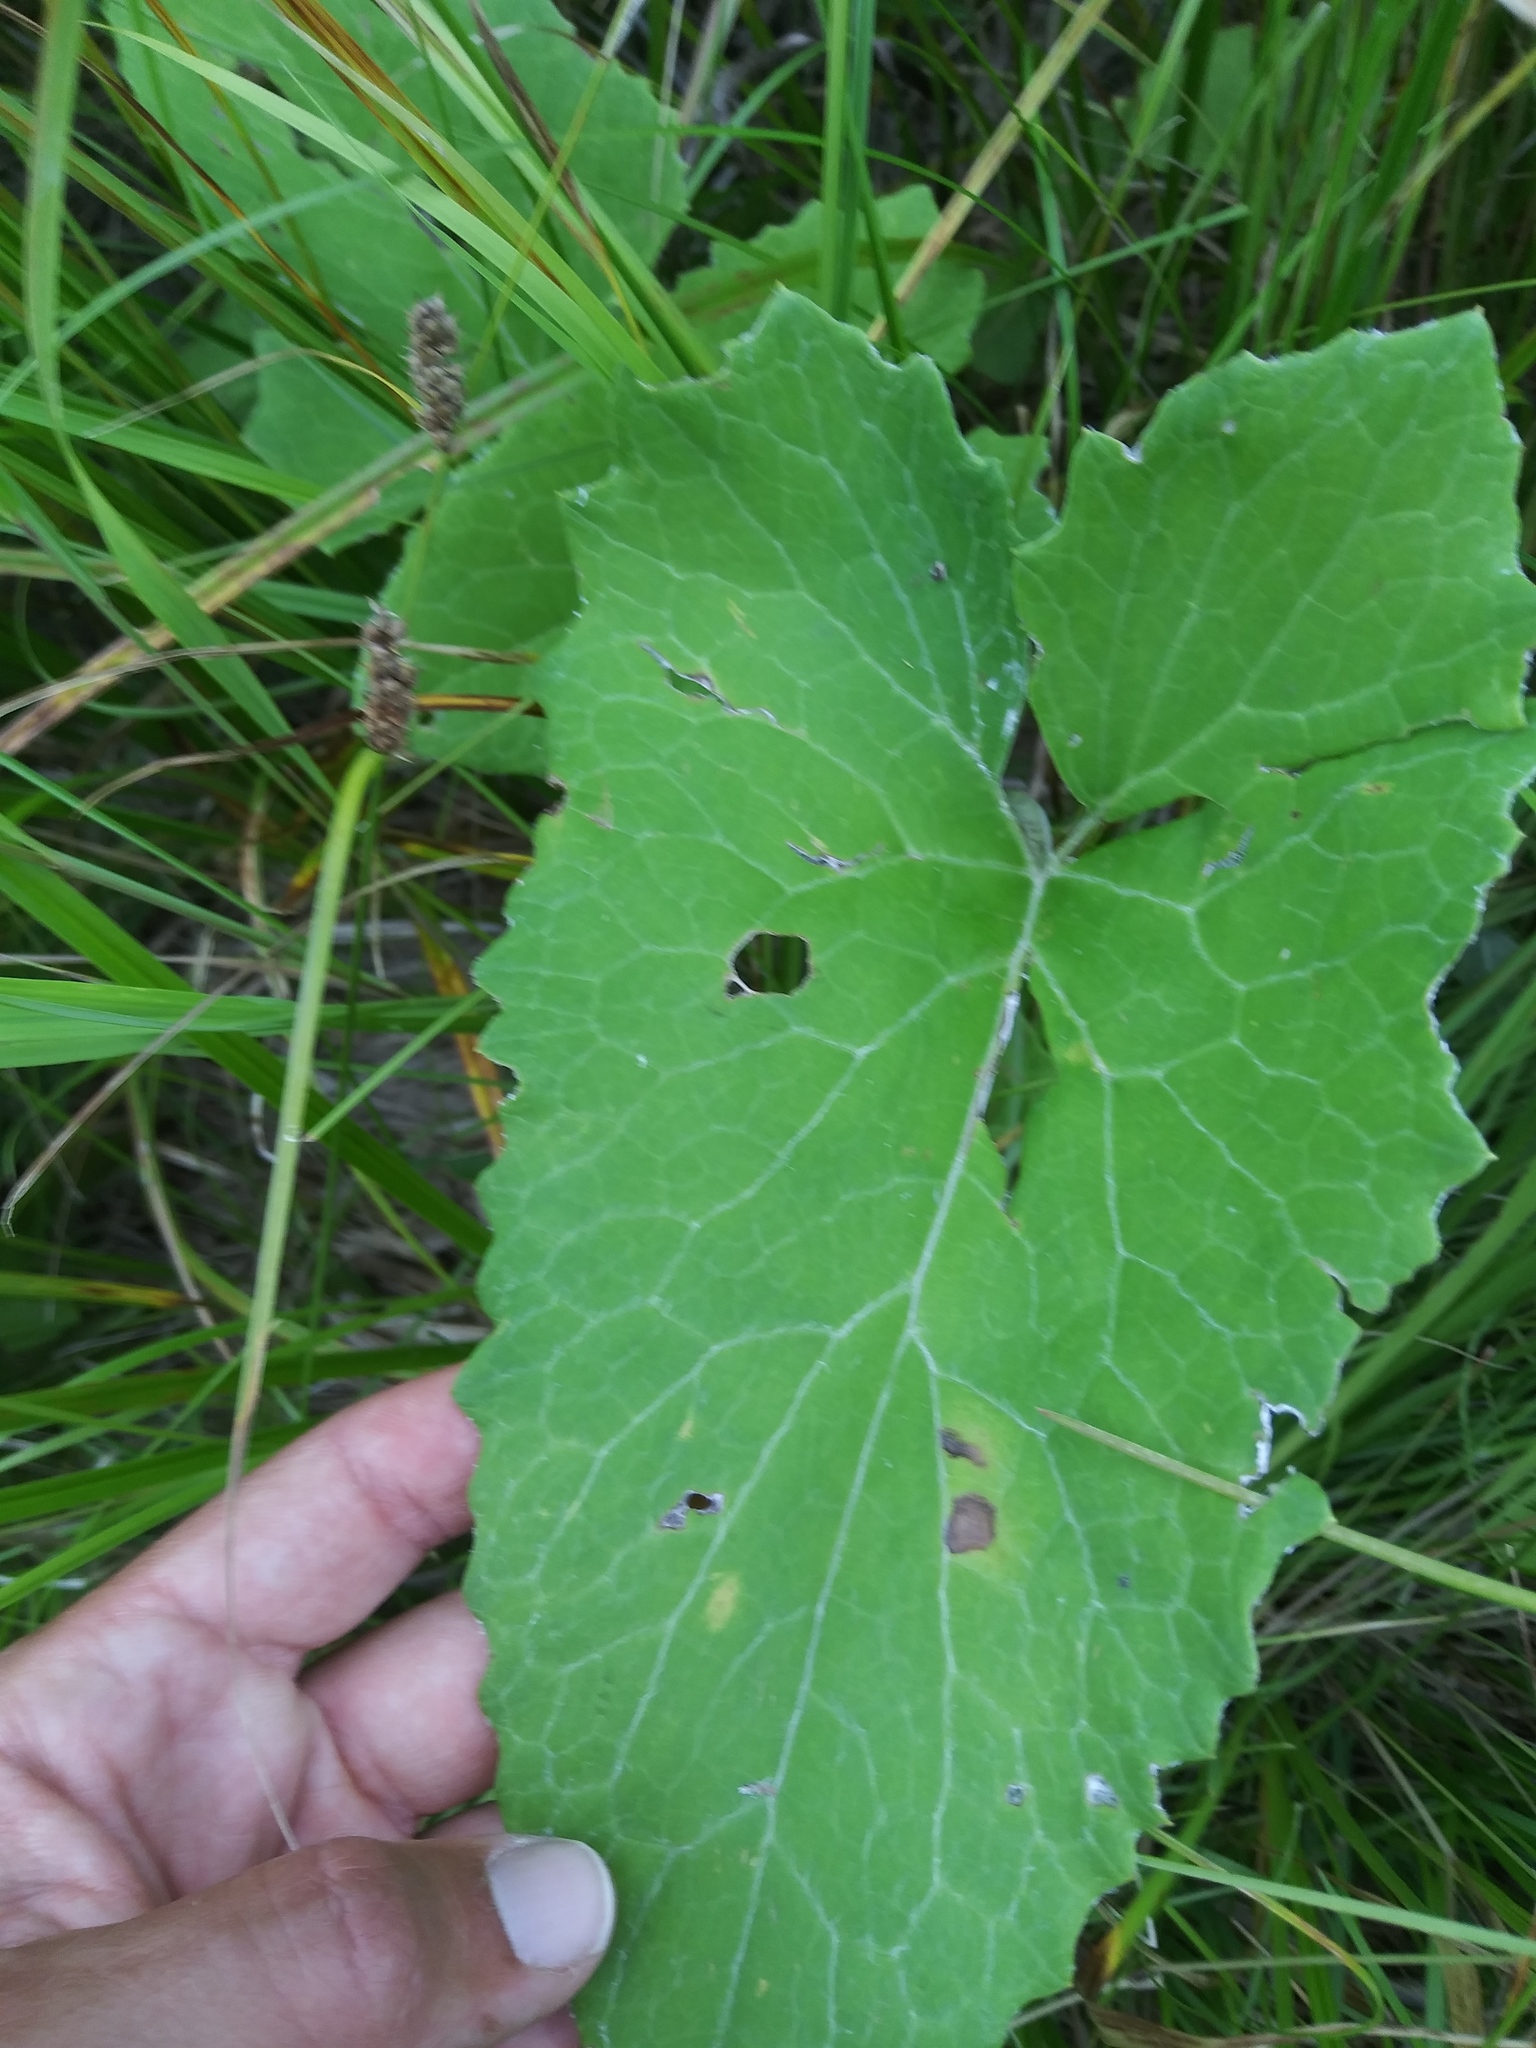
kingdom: Plantae
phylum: Tracheophyta
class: Magnoliopsida
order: Asterales
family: Asteraceae
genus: Petasites
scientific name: Petasites frigidus
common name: Arctic butterbur
